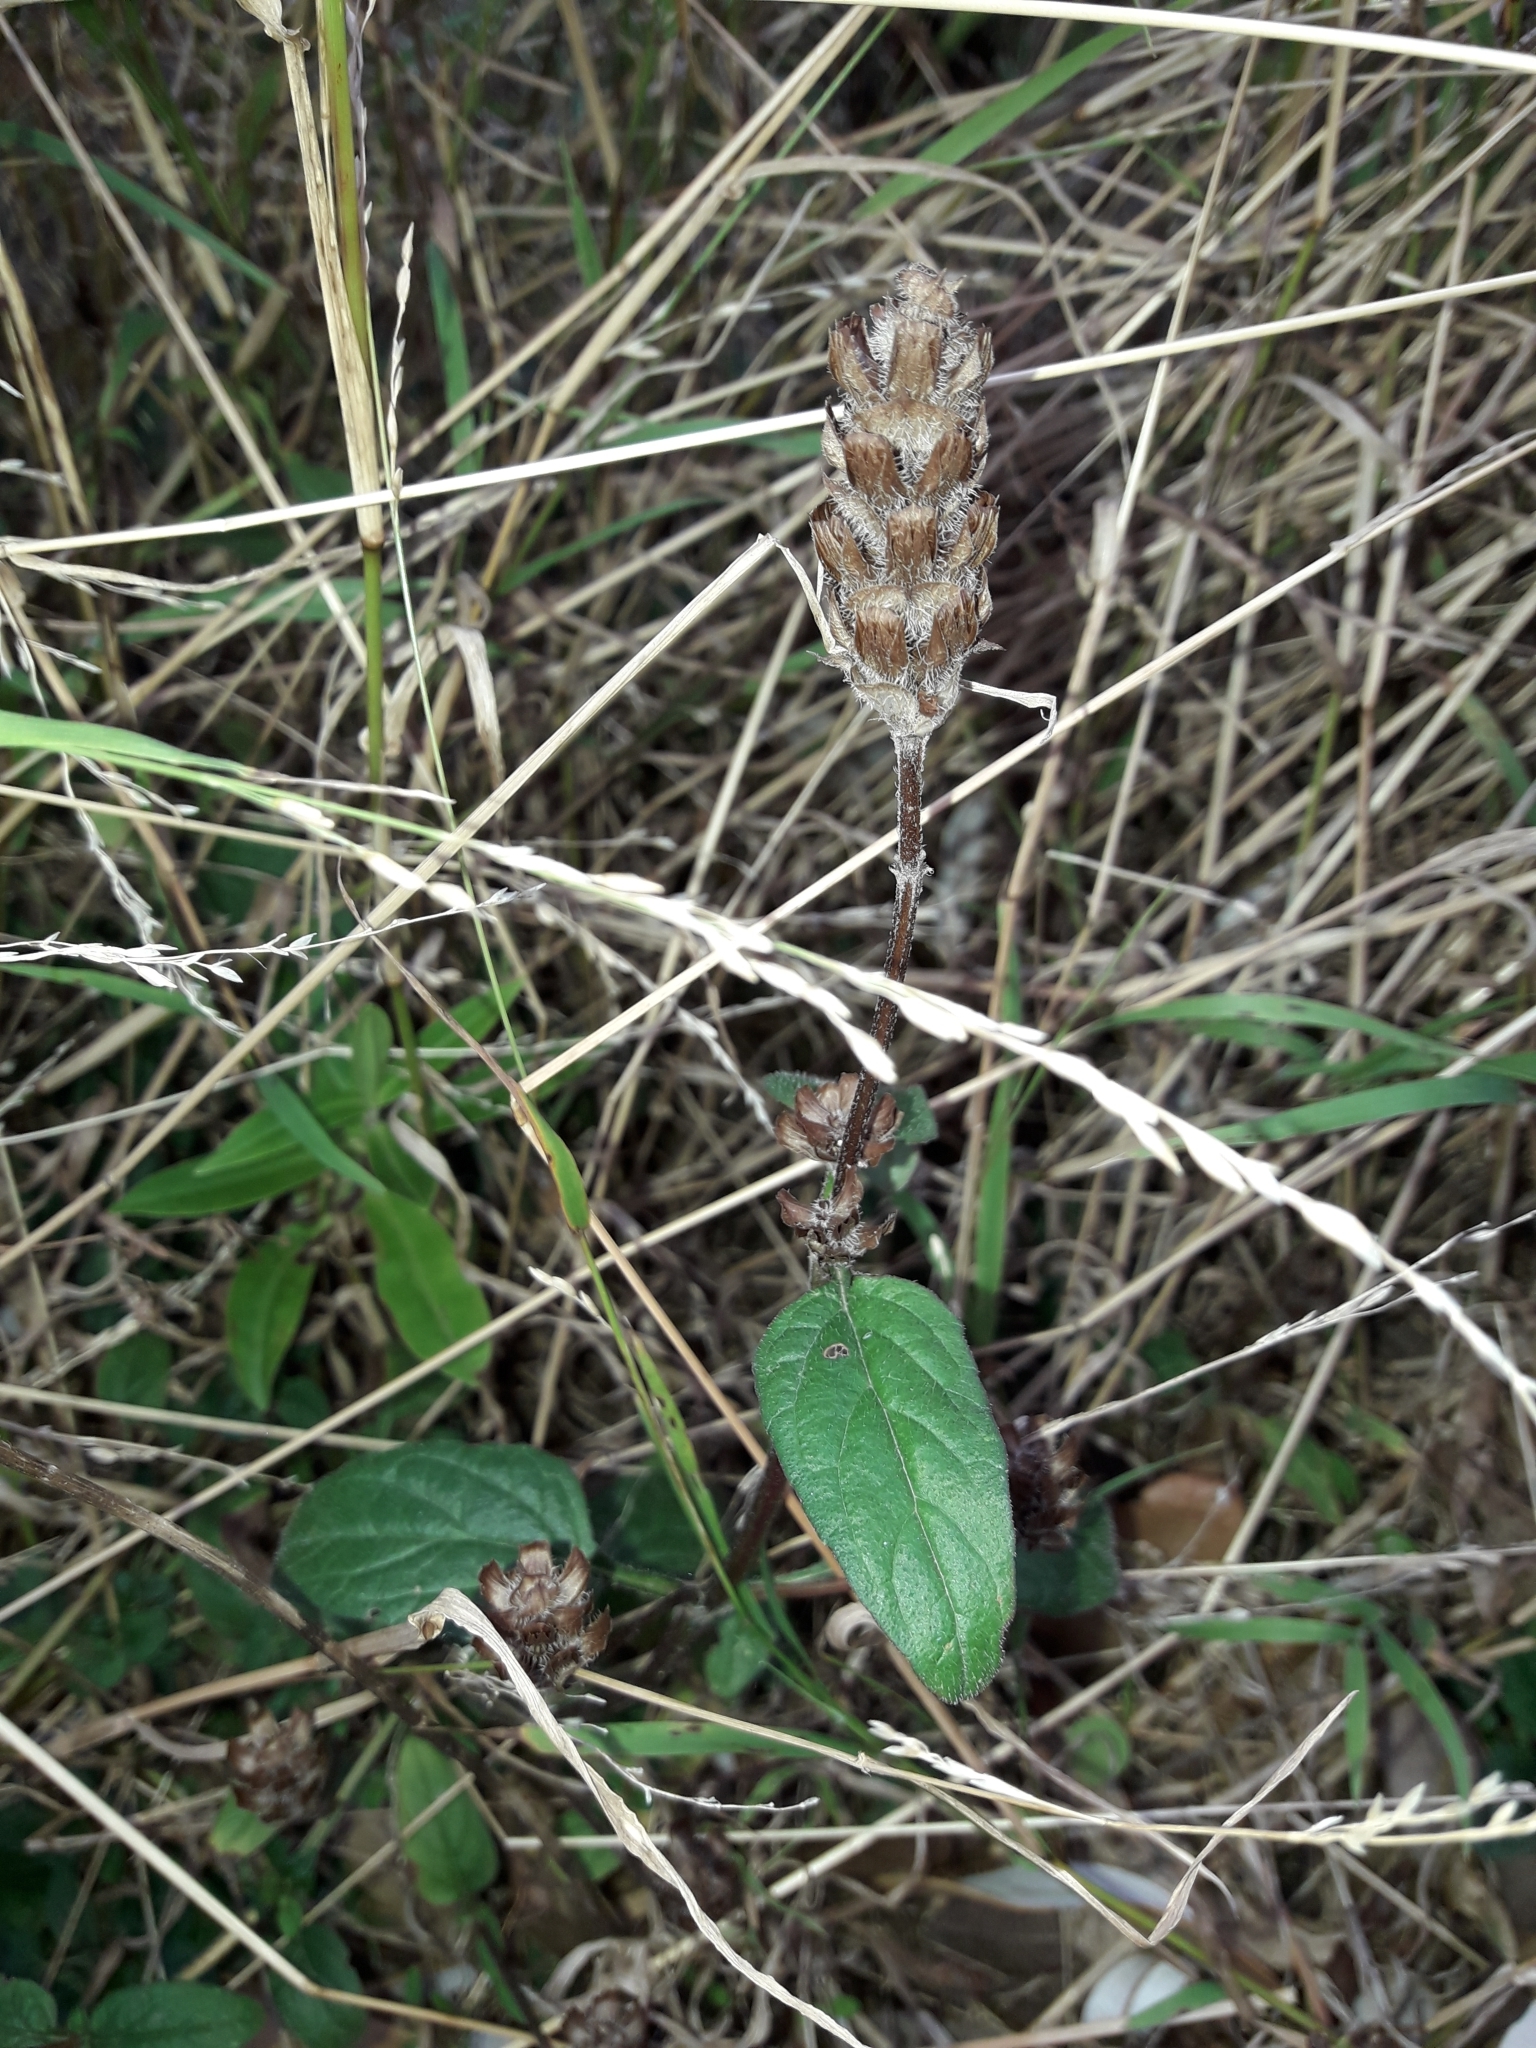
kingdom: Plantae
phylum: Tracheophyta
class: Magnoliopsida
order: Lamiales
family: Lamiaceae
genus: Prunella
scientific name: Prunella vulgaris
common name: Heal-all
